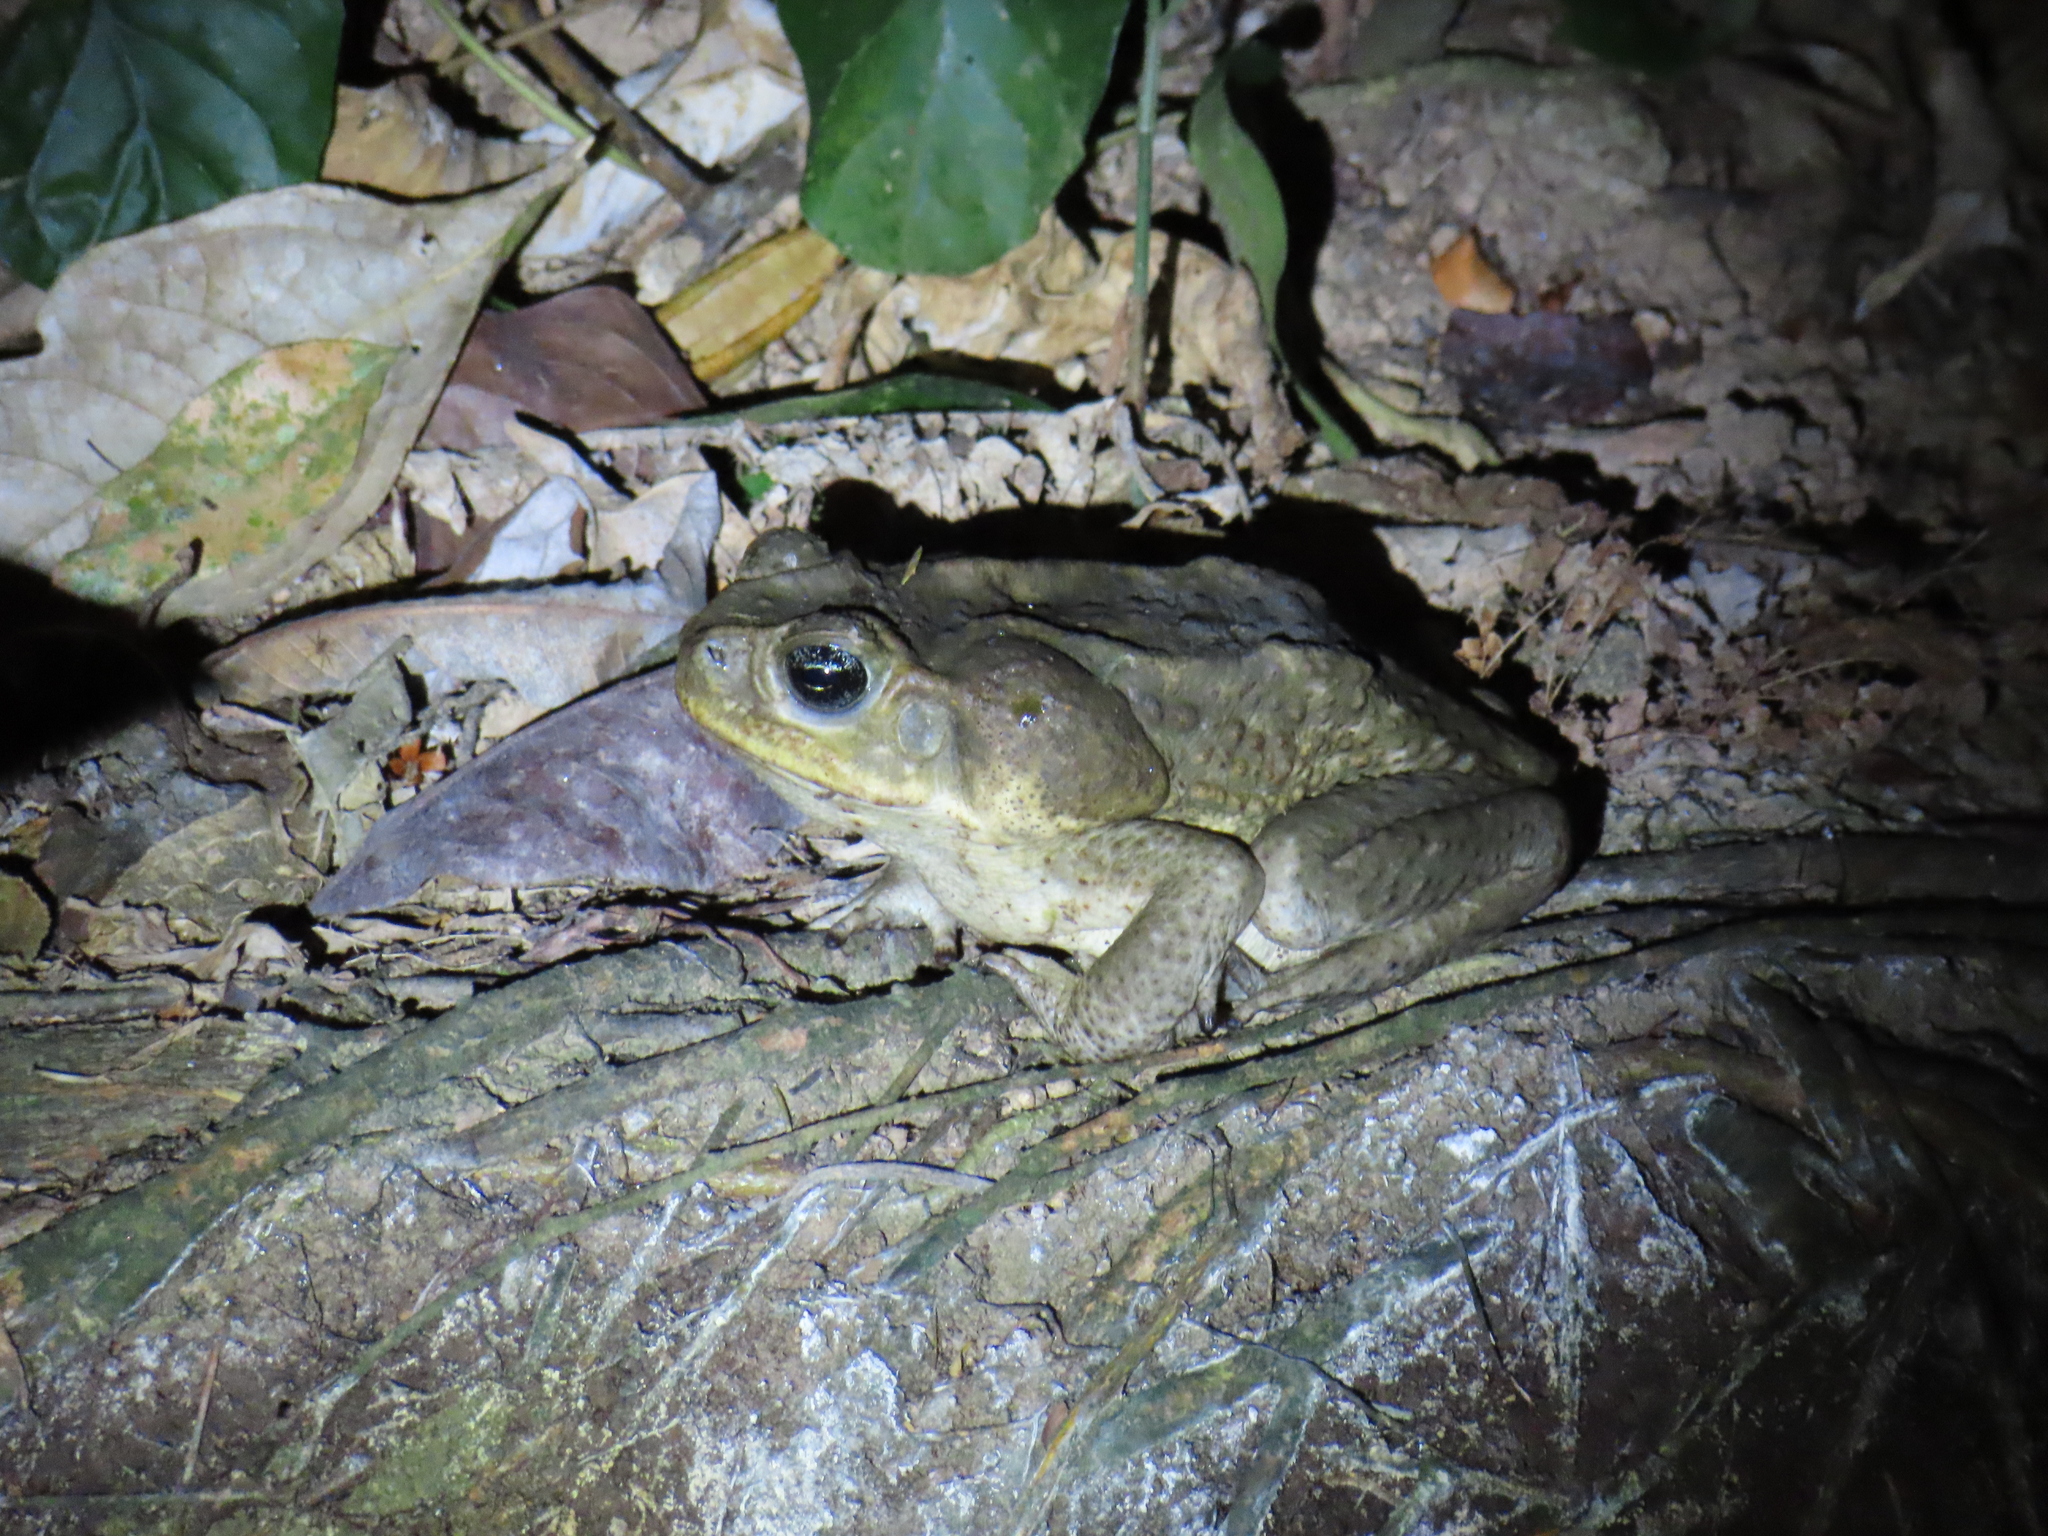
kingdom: Animalia
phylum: Chordata
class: Amphibia
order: Anura
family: Bufonidae
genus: Rhinella
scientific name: Rhinella horribilis
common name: Mesoamerican cane toad
